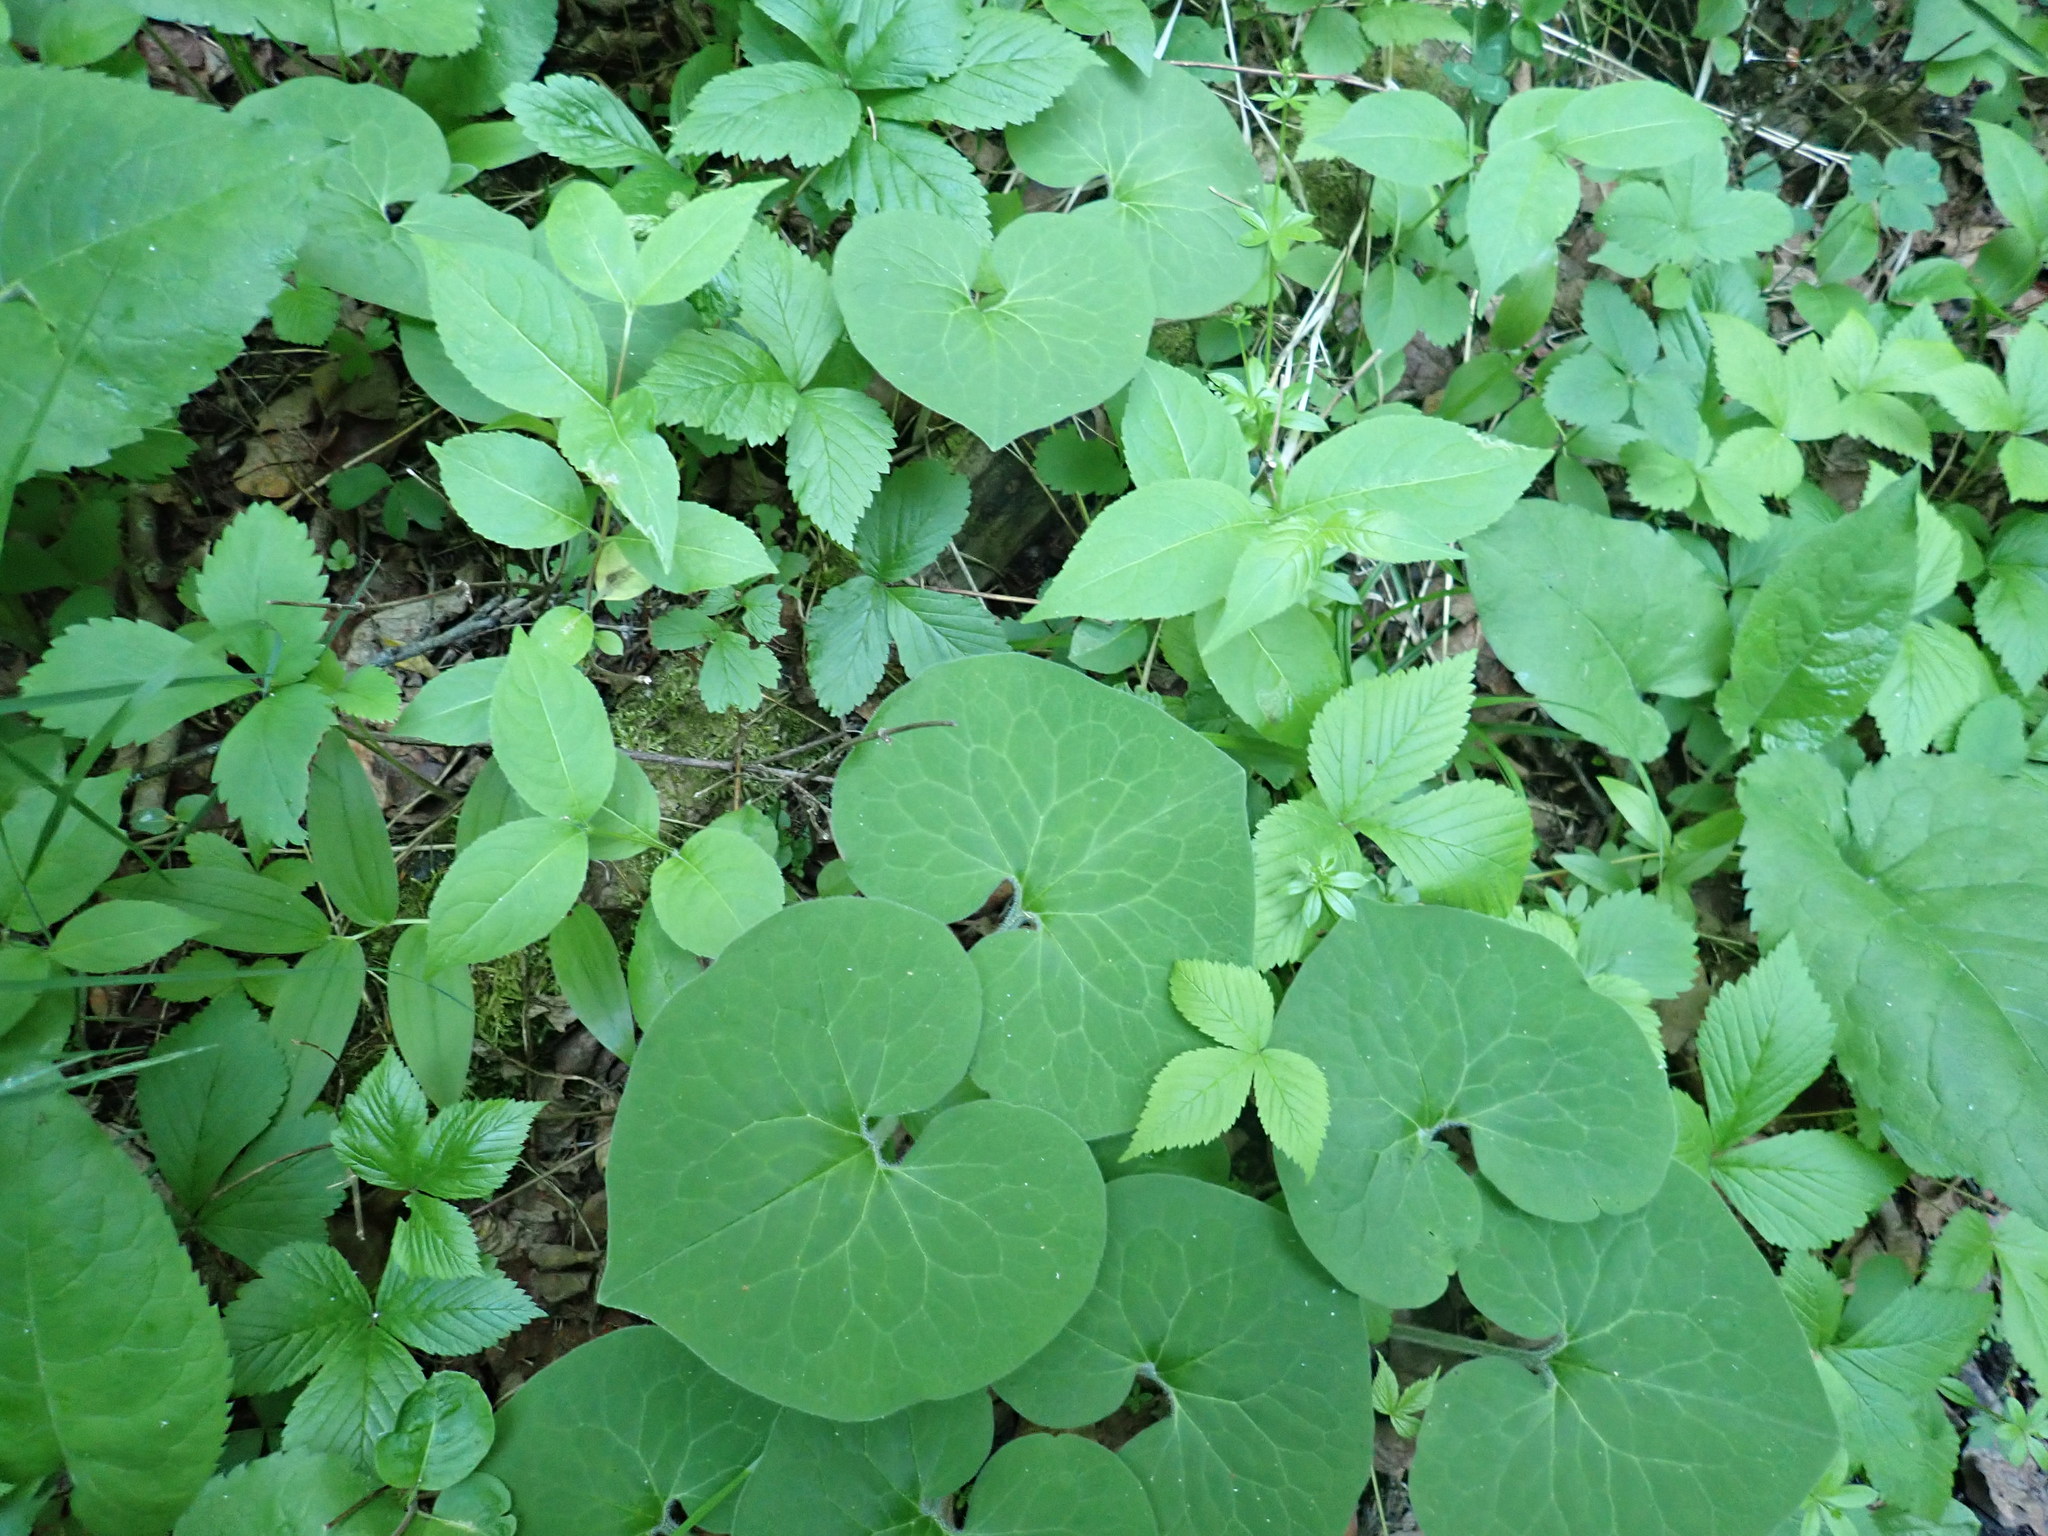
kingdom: Plantae
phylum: Tracheophyta
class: Magnoliopsida
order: Piperales
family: Aristolochiaceae
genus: Asarum
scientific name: Asarum canadense
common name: Wild ginger
